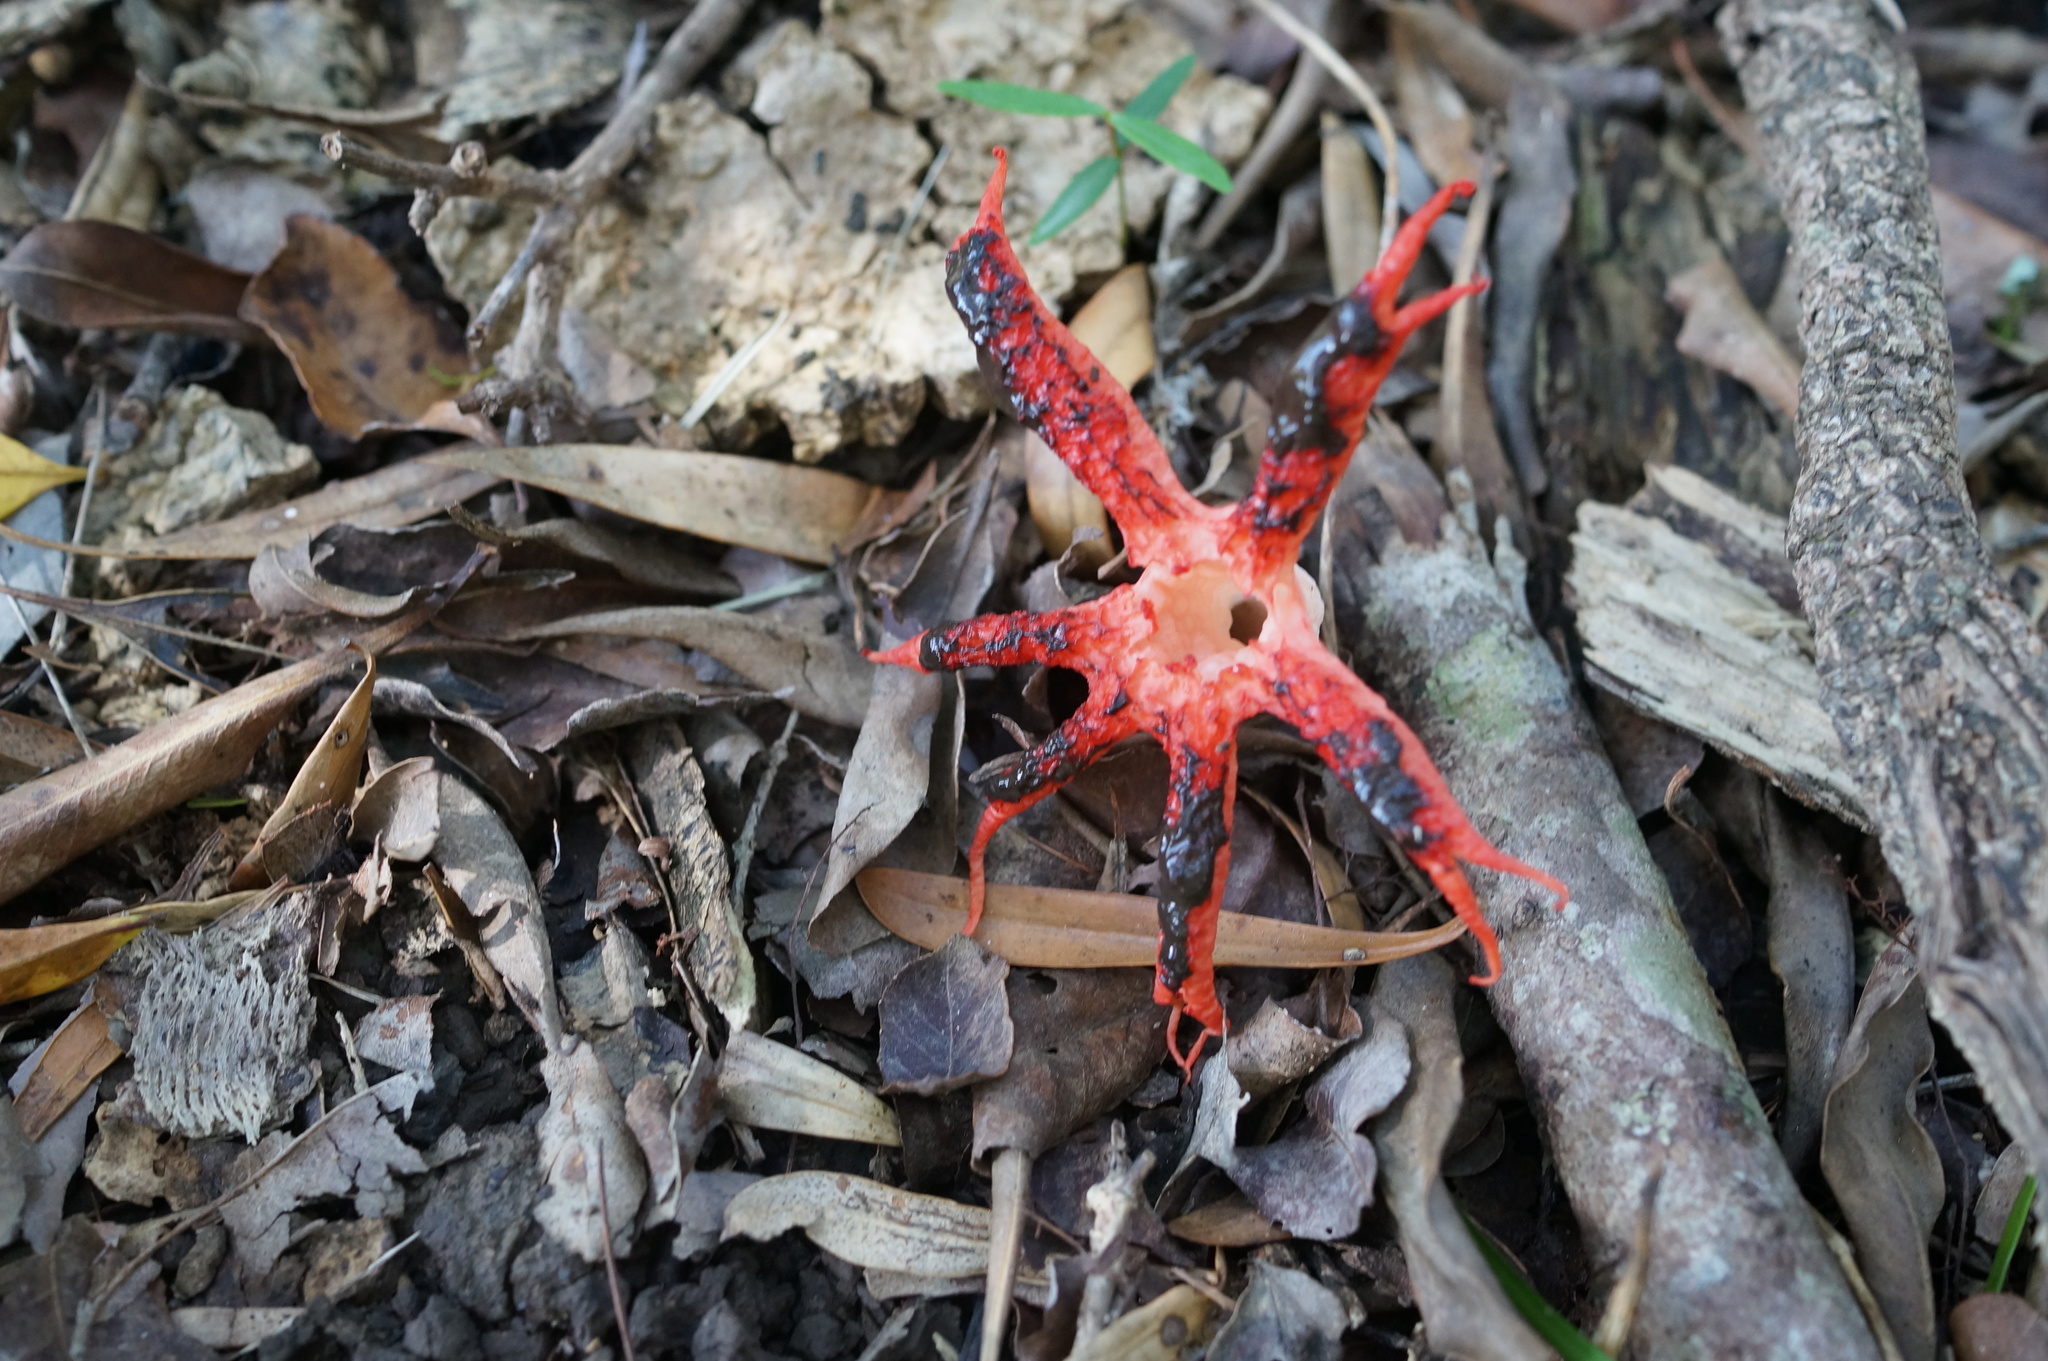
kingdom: Fungi
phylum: Basidiomycota
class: Agaricomycetes
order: Phallales
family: Phallaceae
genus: Clathrus
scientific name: Clathrus archeri
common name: Devil's fingers
